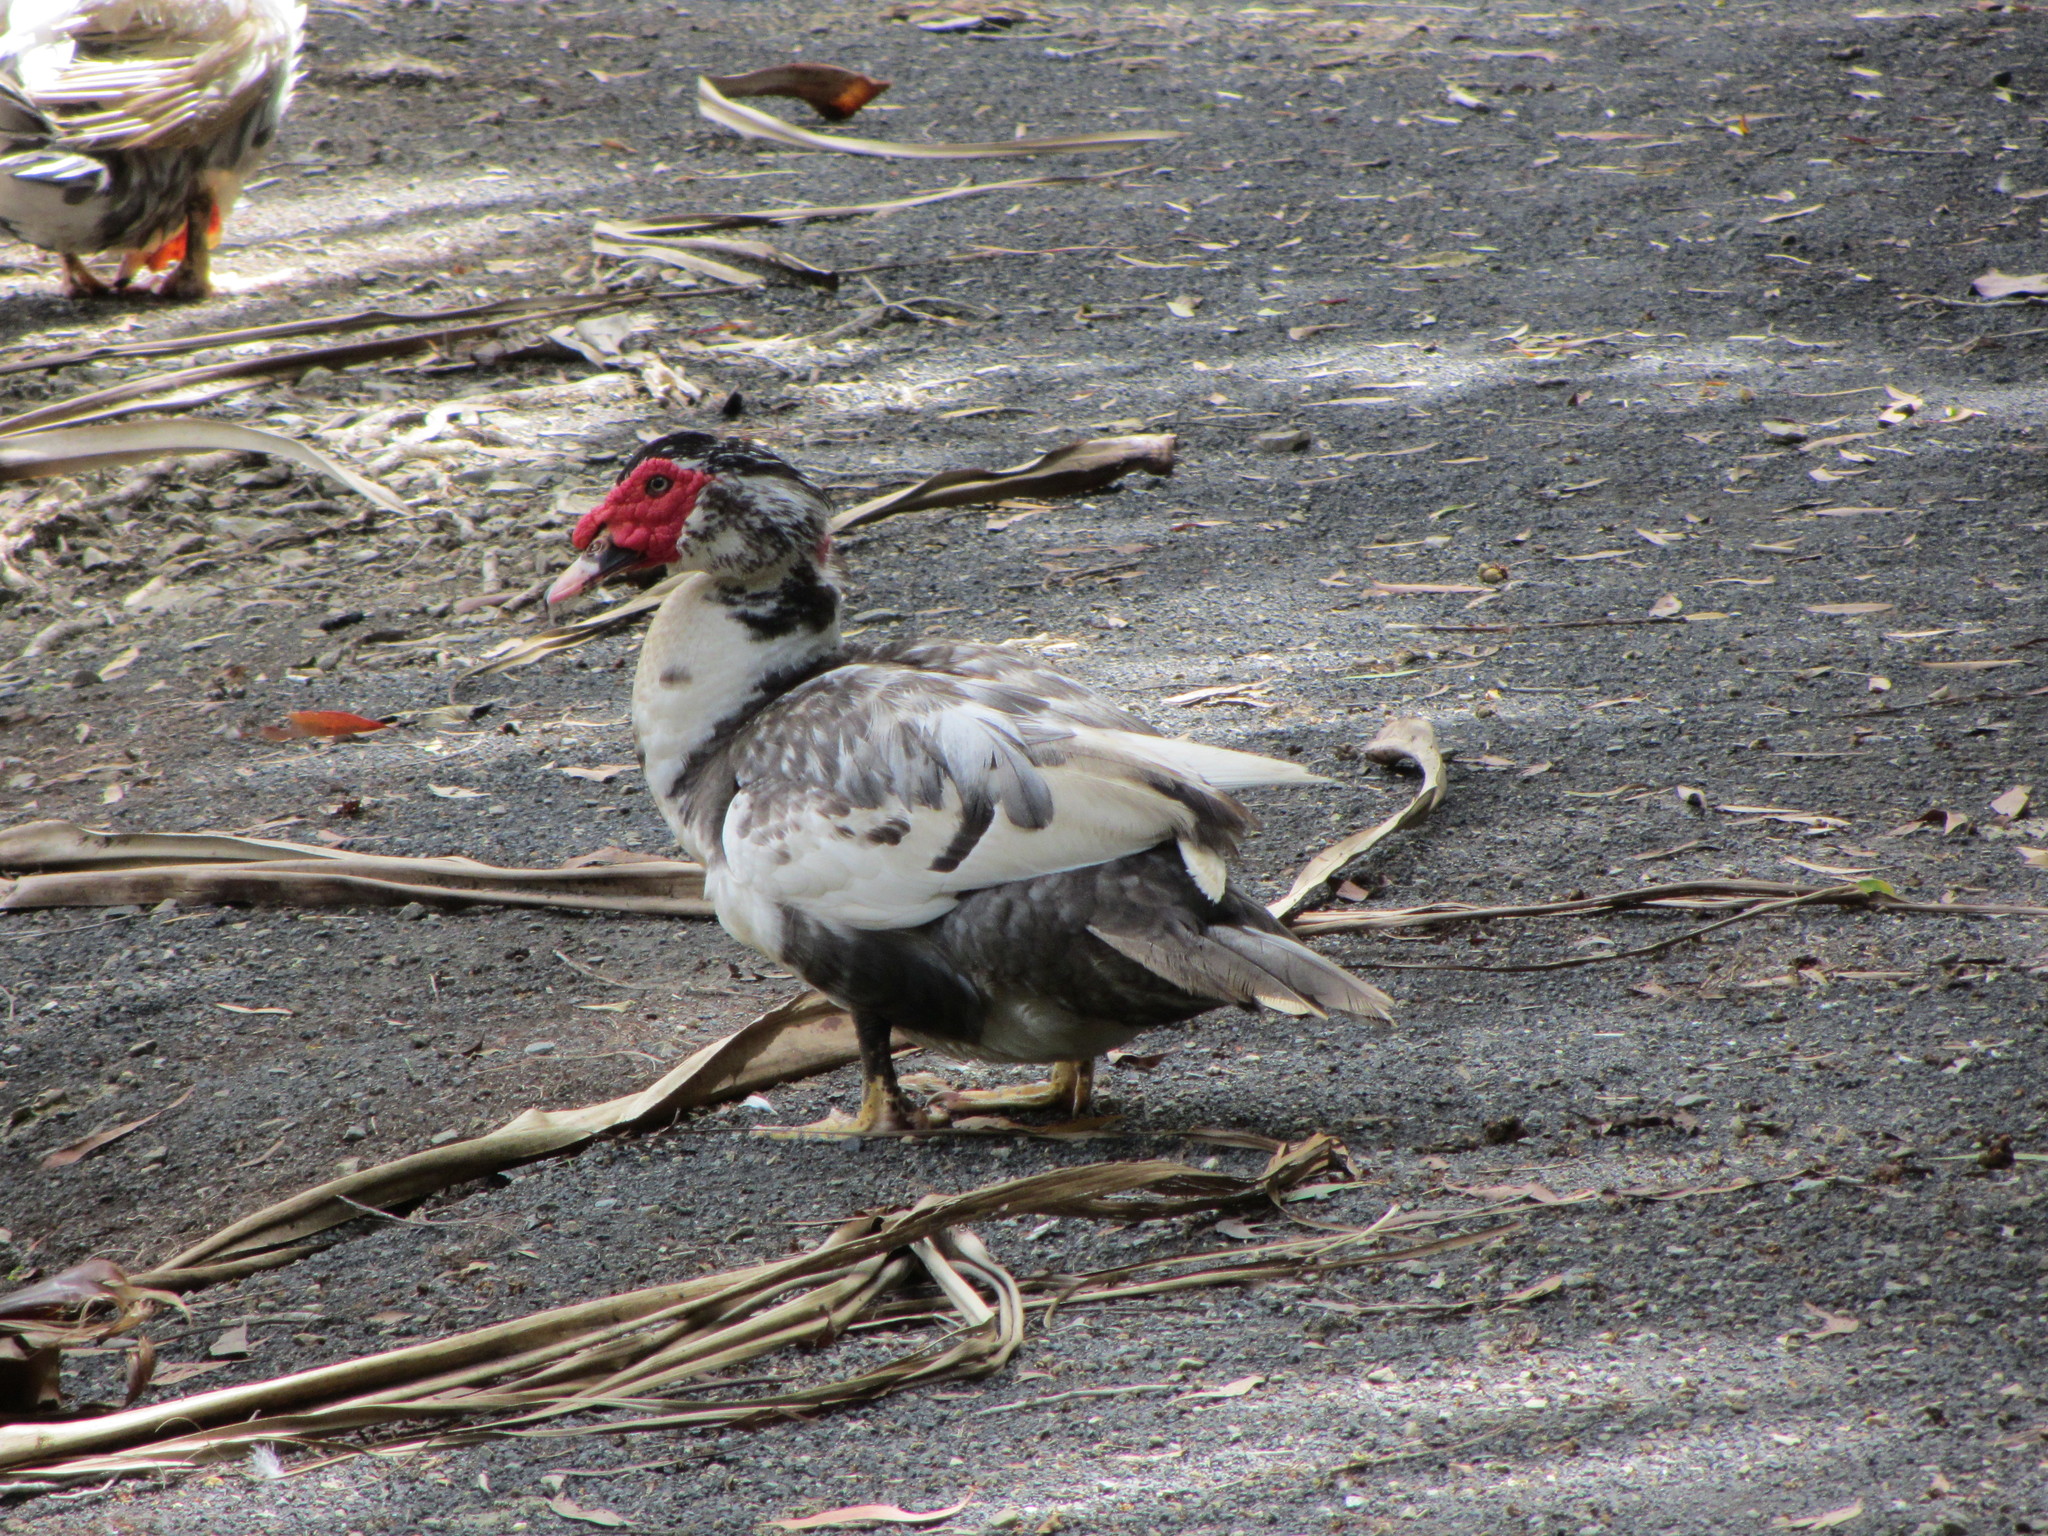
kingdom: Animalia
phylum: Chordata
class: Aves
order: Anseriformes
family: Anatidae
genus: Cairina
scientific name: Cairina moschata
